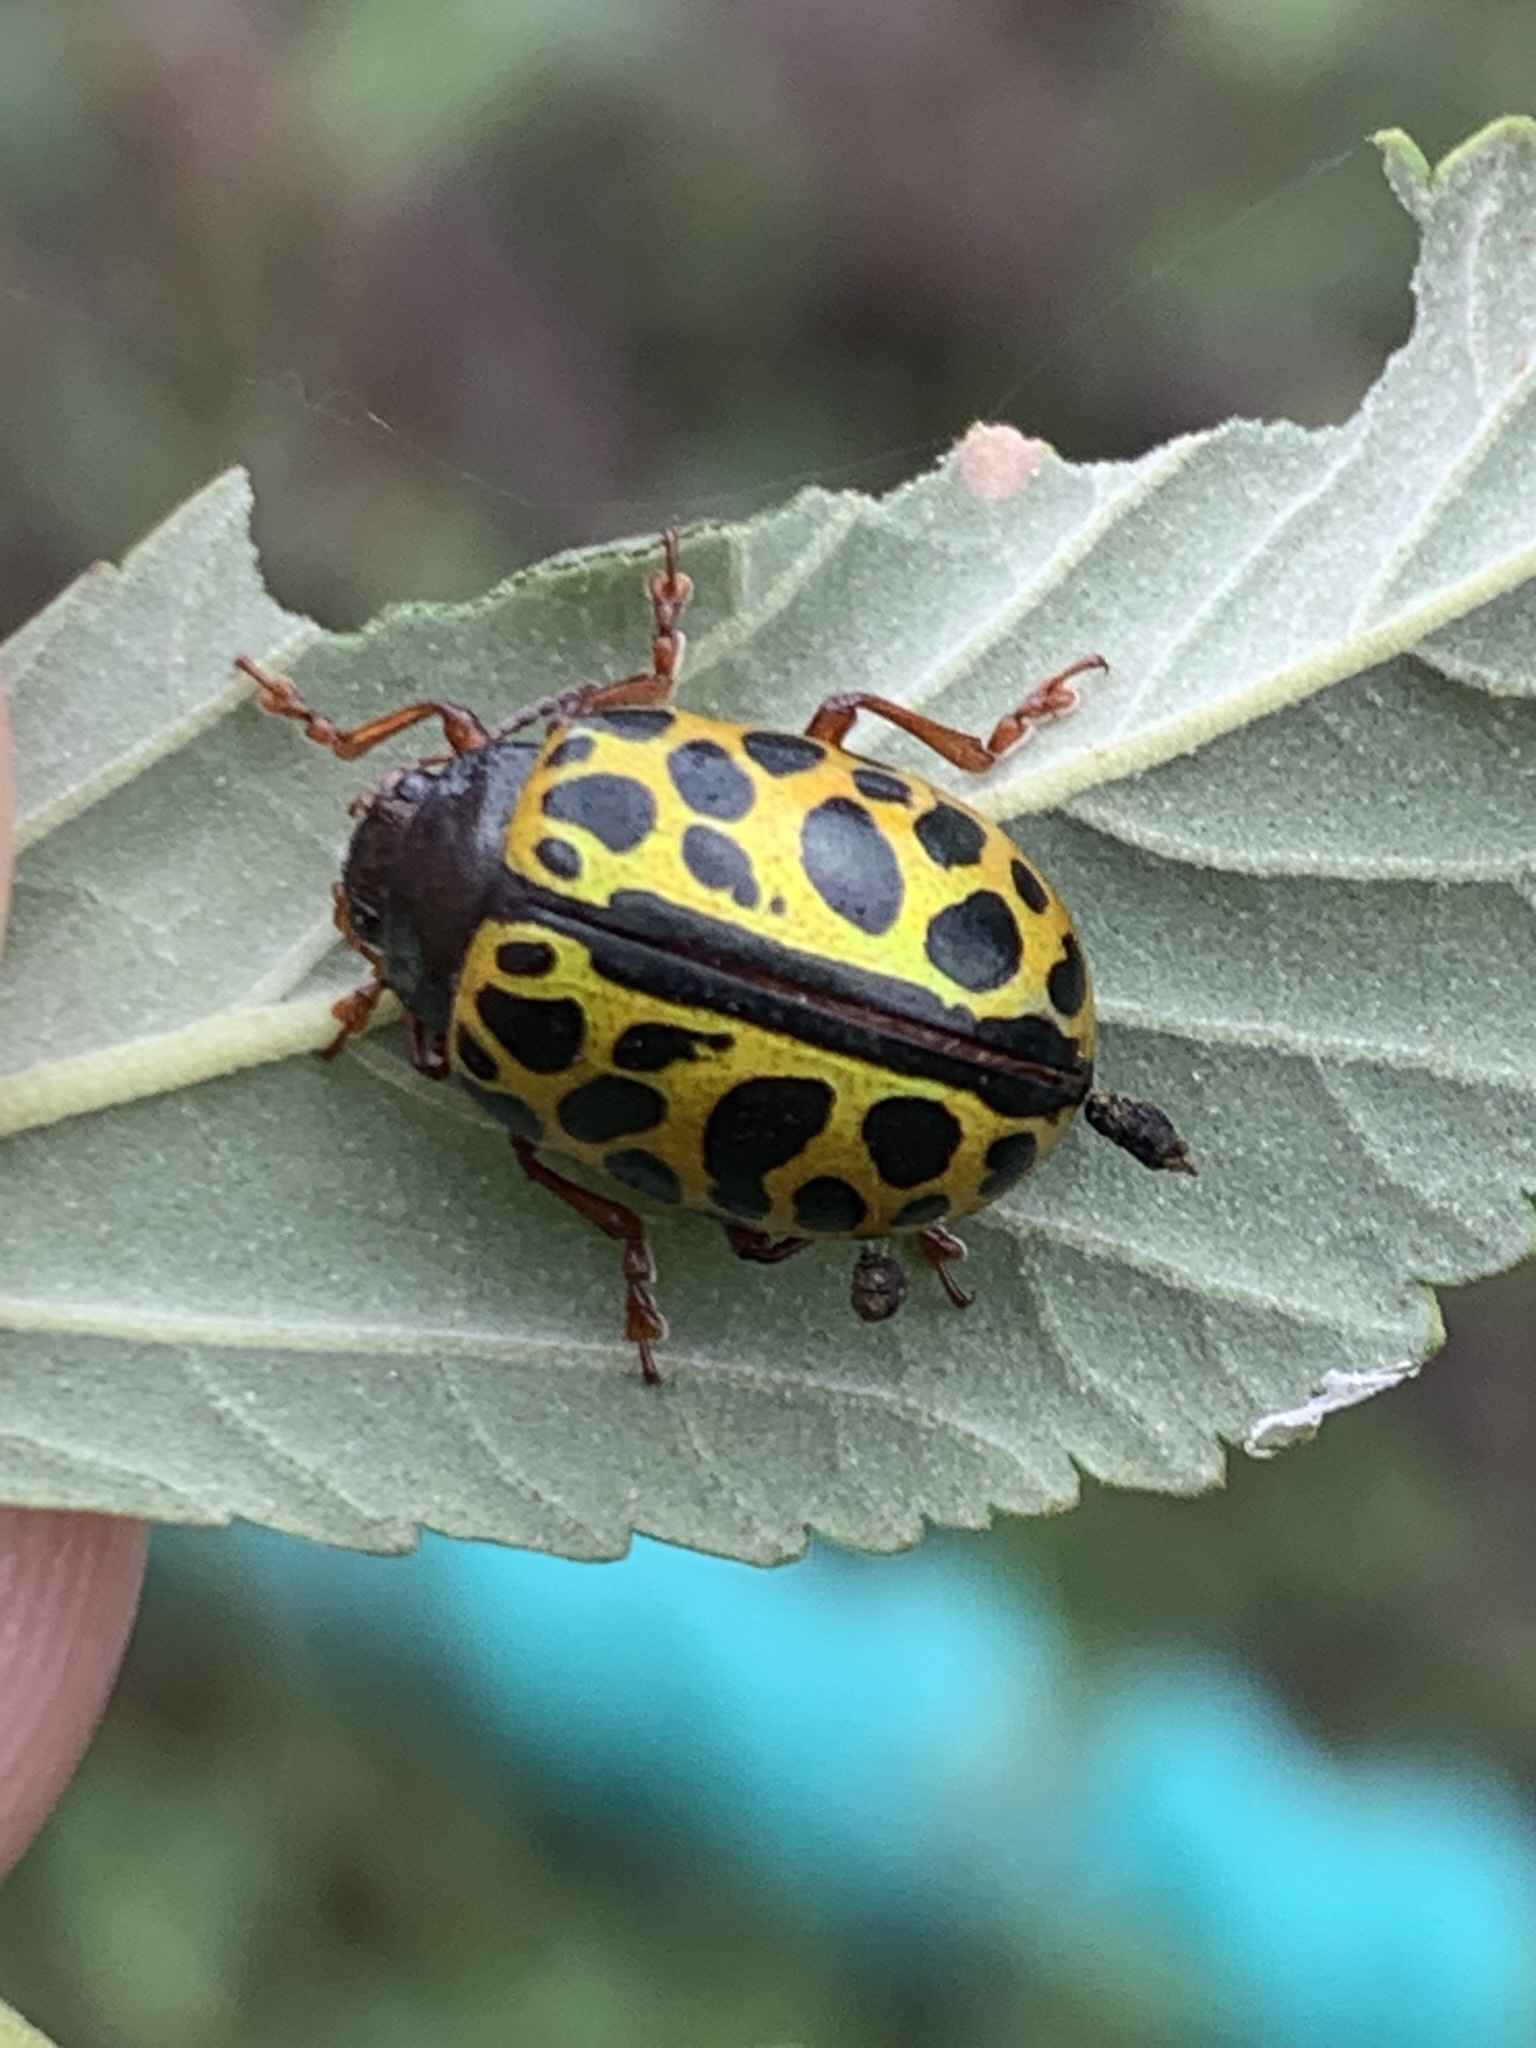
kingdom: Animalia
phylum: Arthropoda
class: Insecta
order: Coleoptera
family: Chrysomelidae
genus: Calligrapha
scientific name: Calligrapha polyspila
